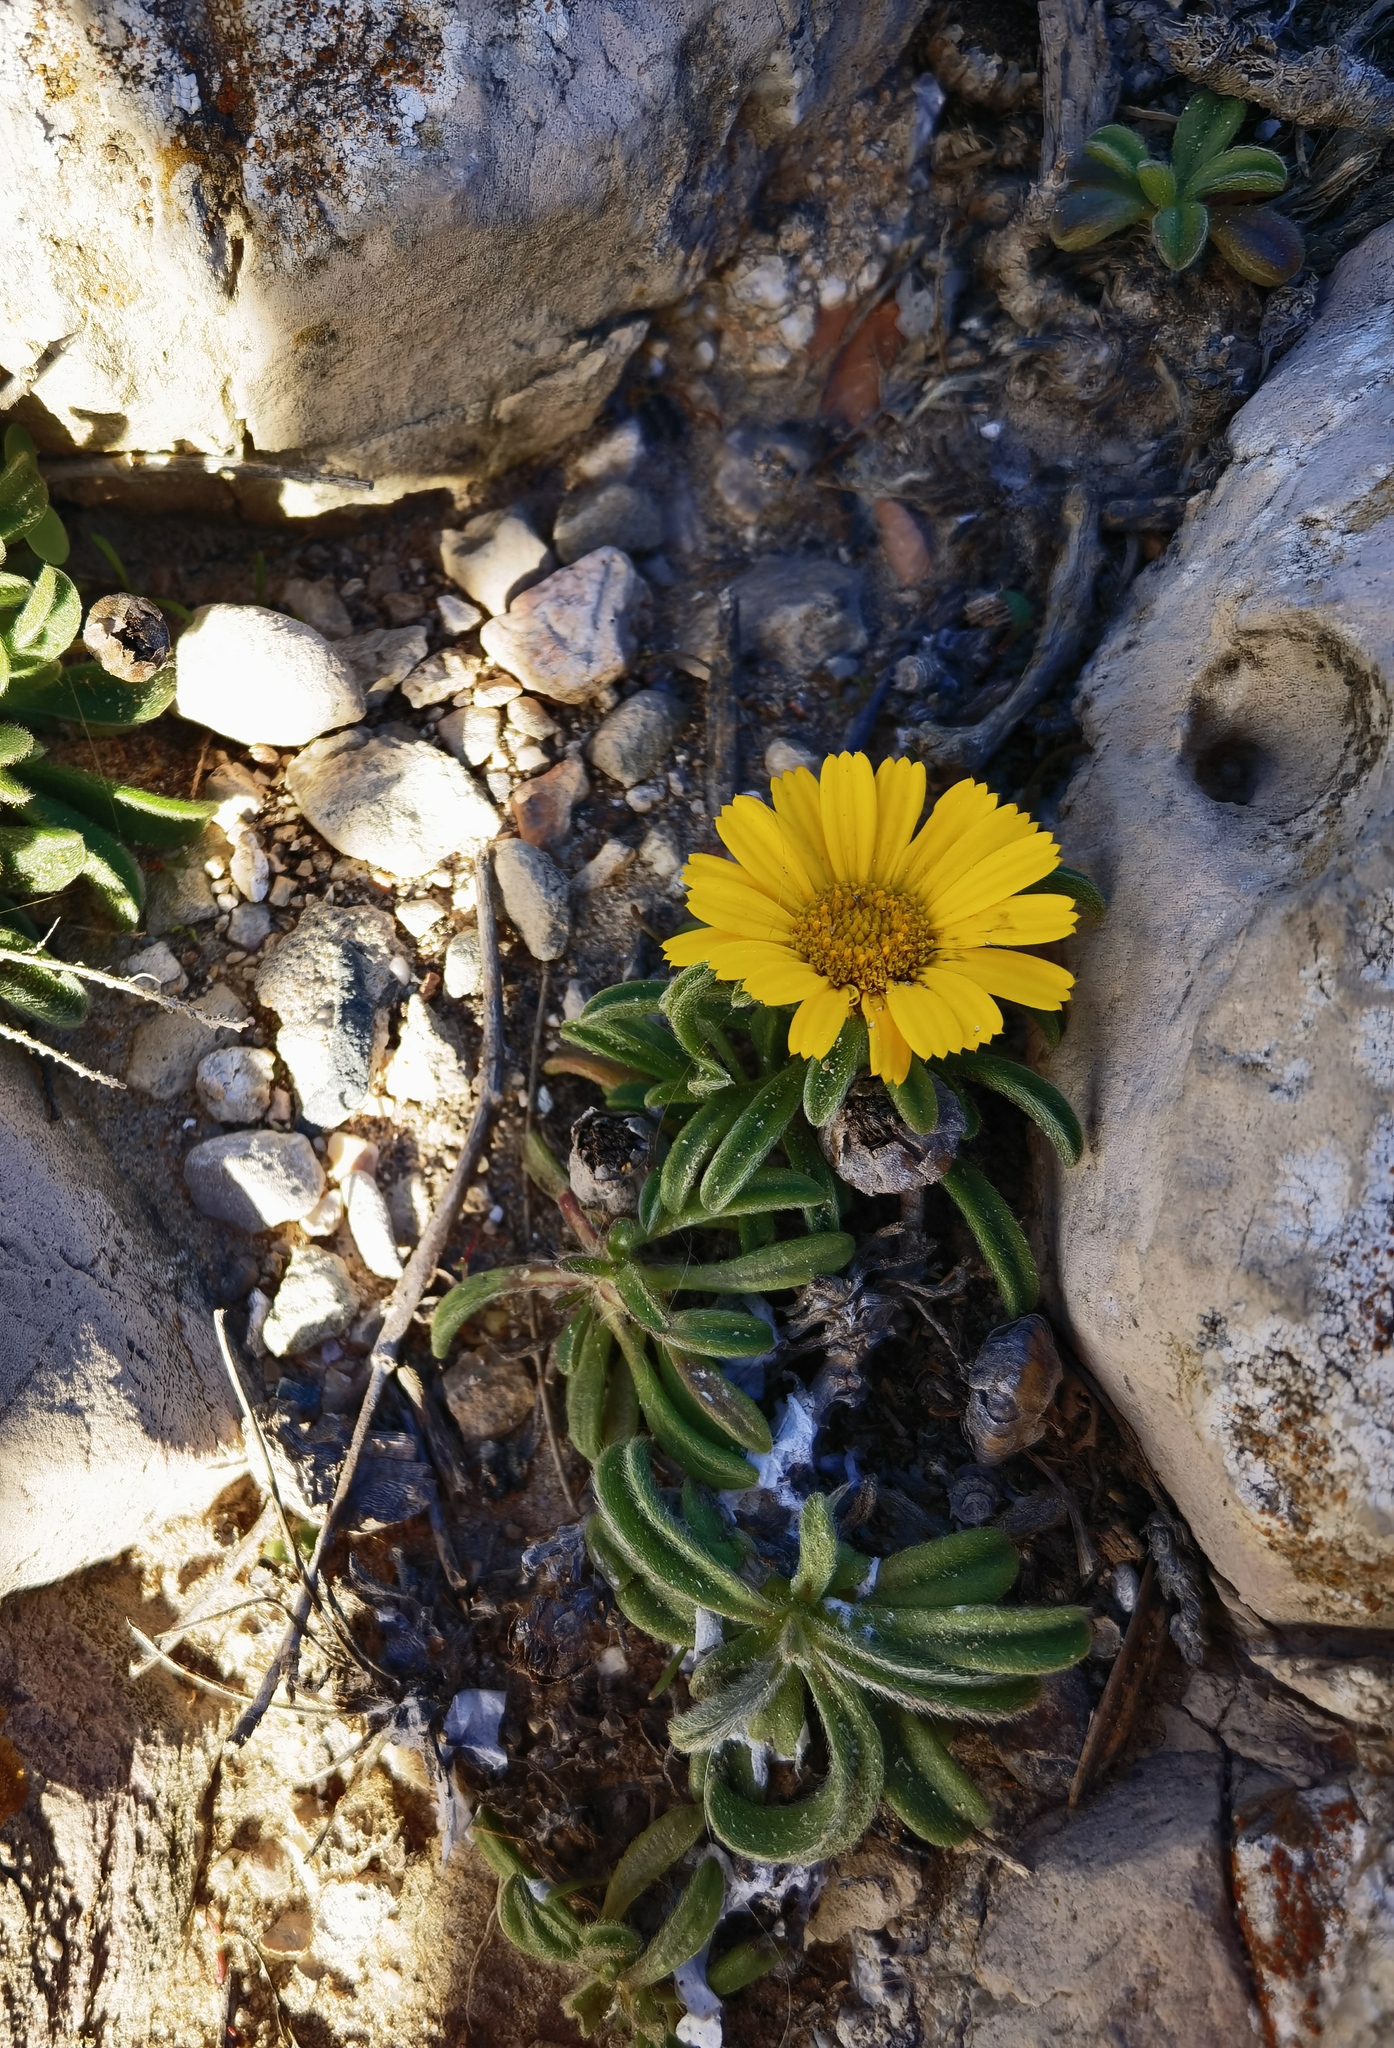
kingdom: Plantae
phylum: Tracheophyta
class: Magnoliopsida
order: Asterales
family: Asteraceae
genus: Pallenis
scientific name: Pallenis maritima
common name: Golden coin daisy
